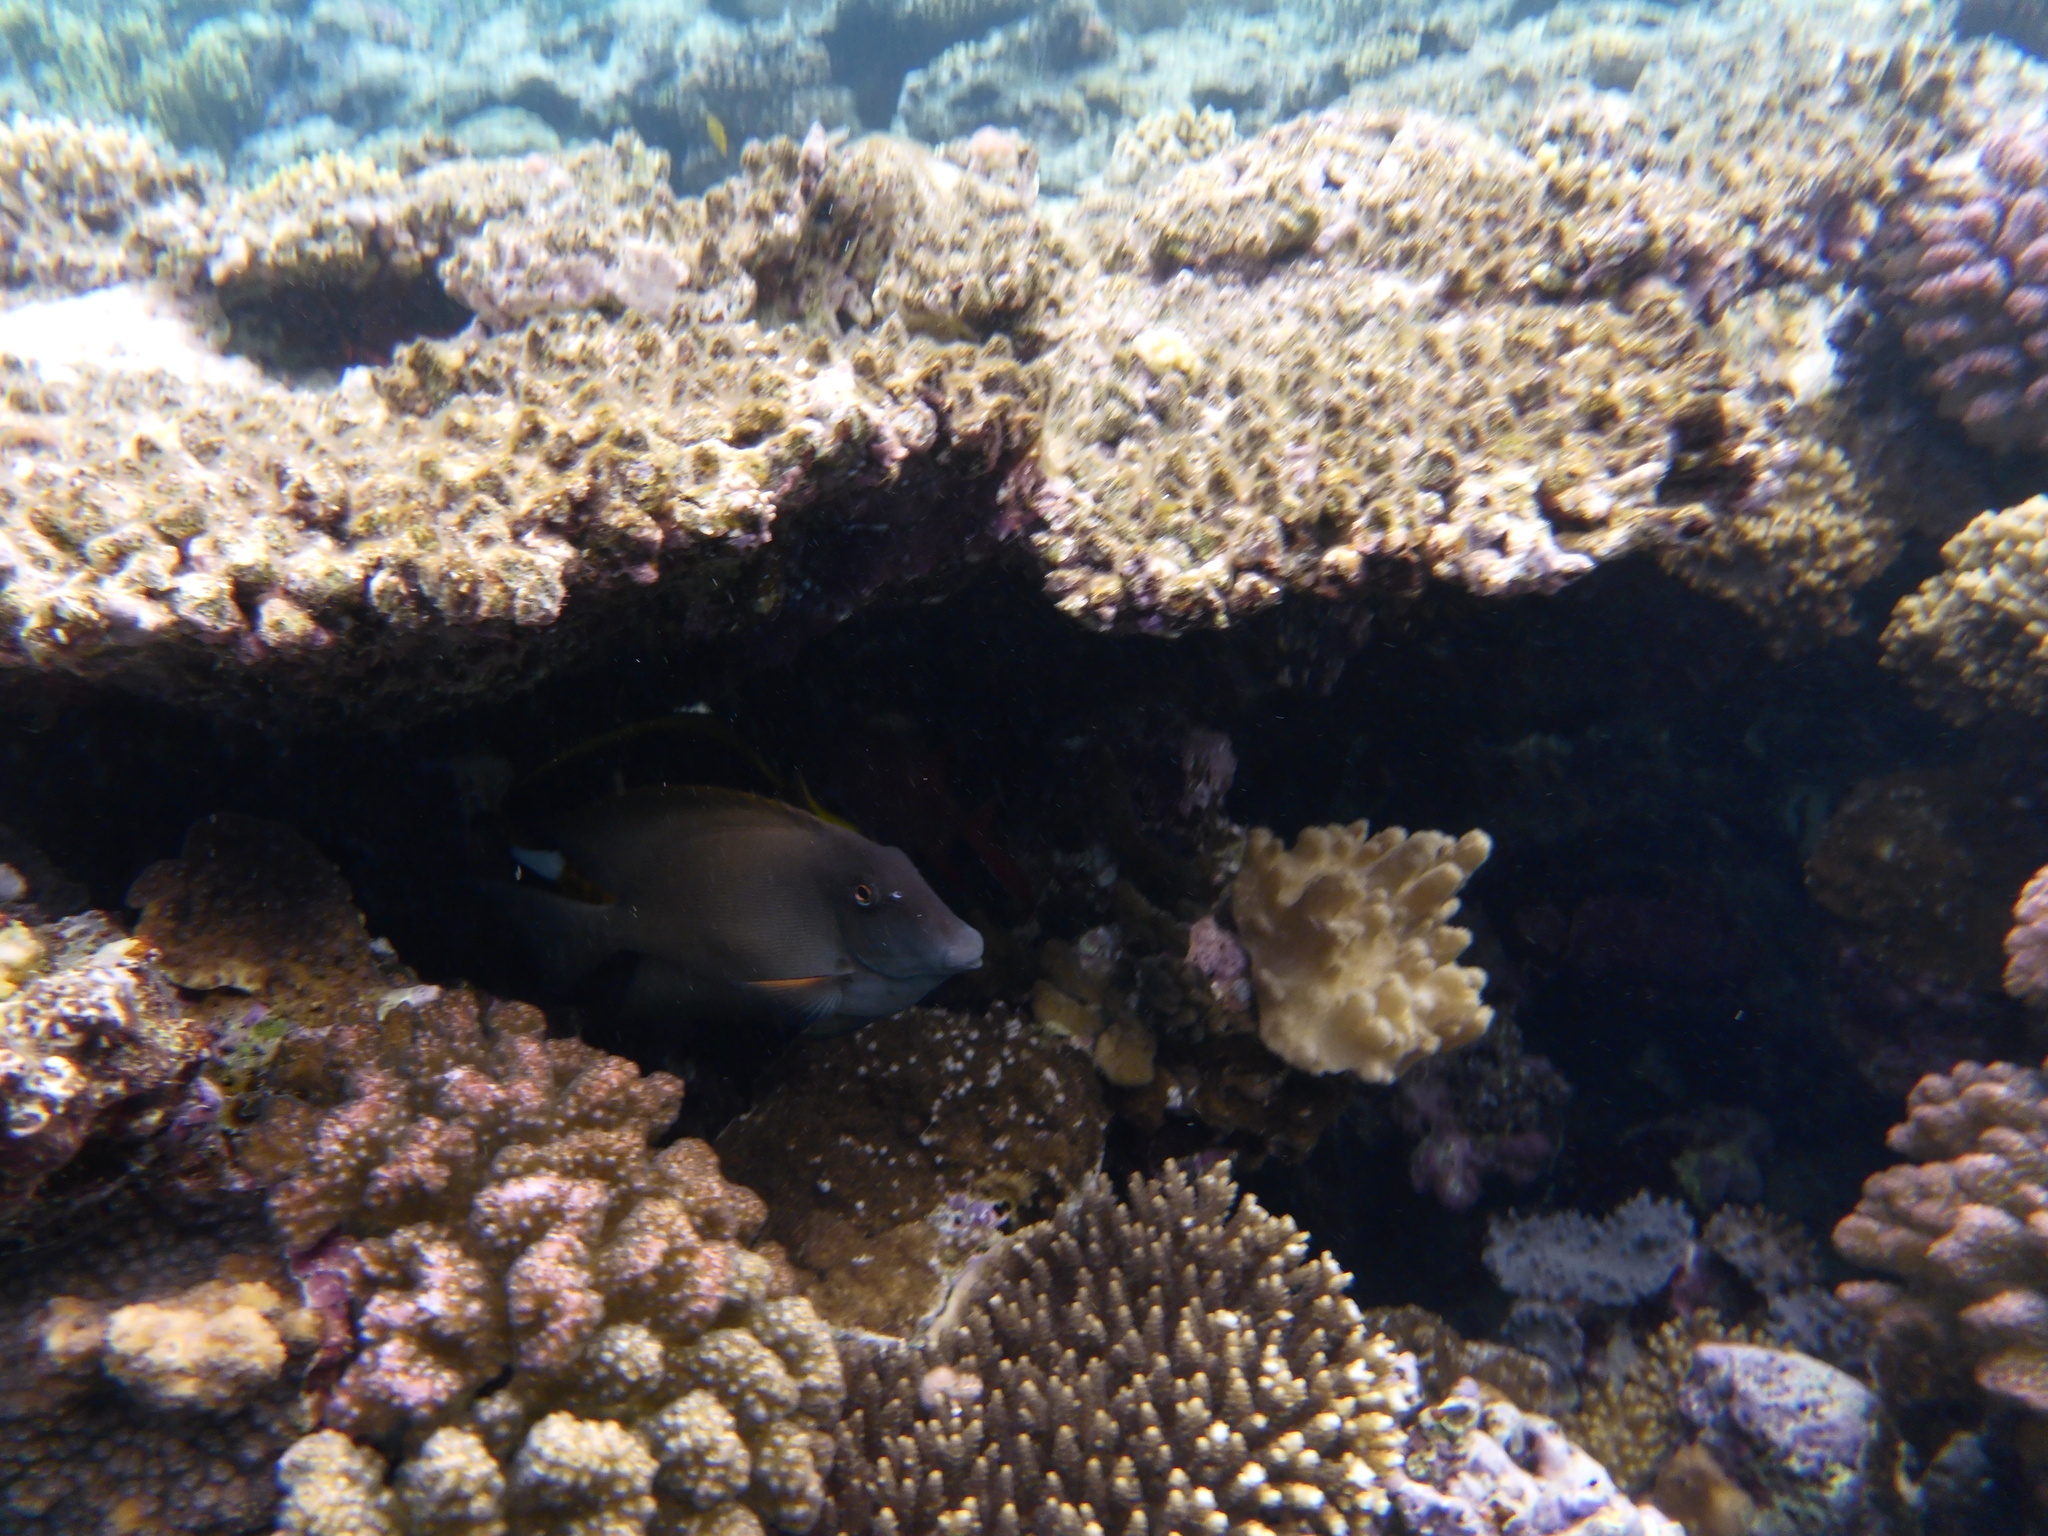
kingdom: Animalia
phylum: Chordata
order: Perciformes
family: Acanthuridae
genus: Ctenochaetus
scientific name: Ctenochaetus striatus
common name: Bristle-toothed surgeonfish
